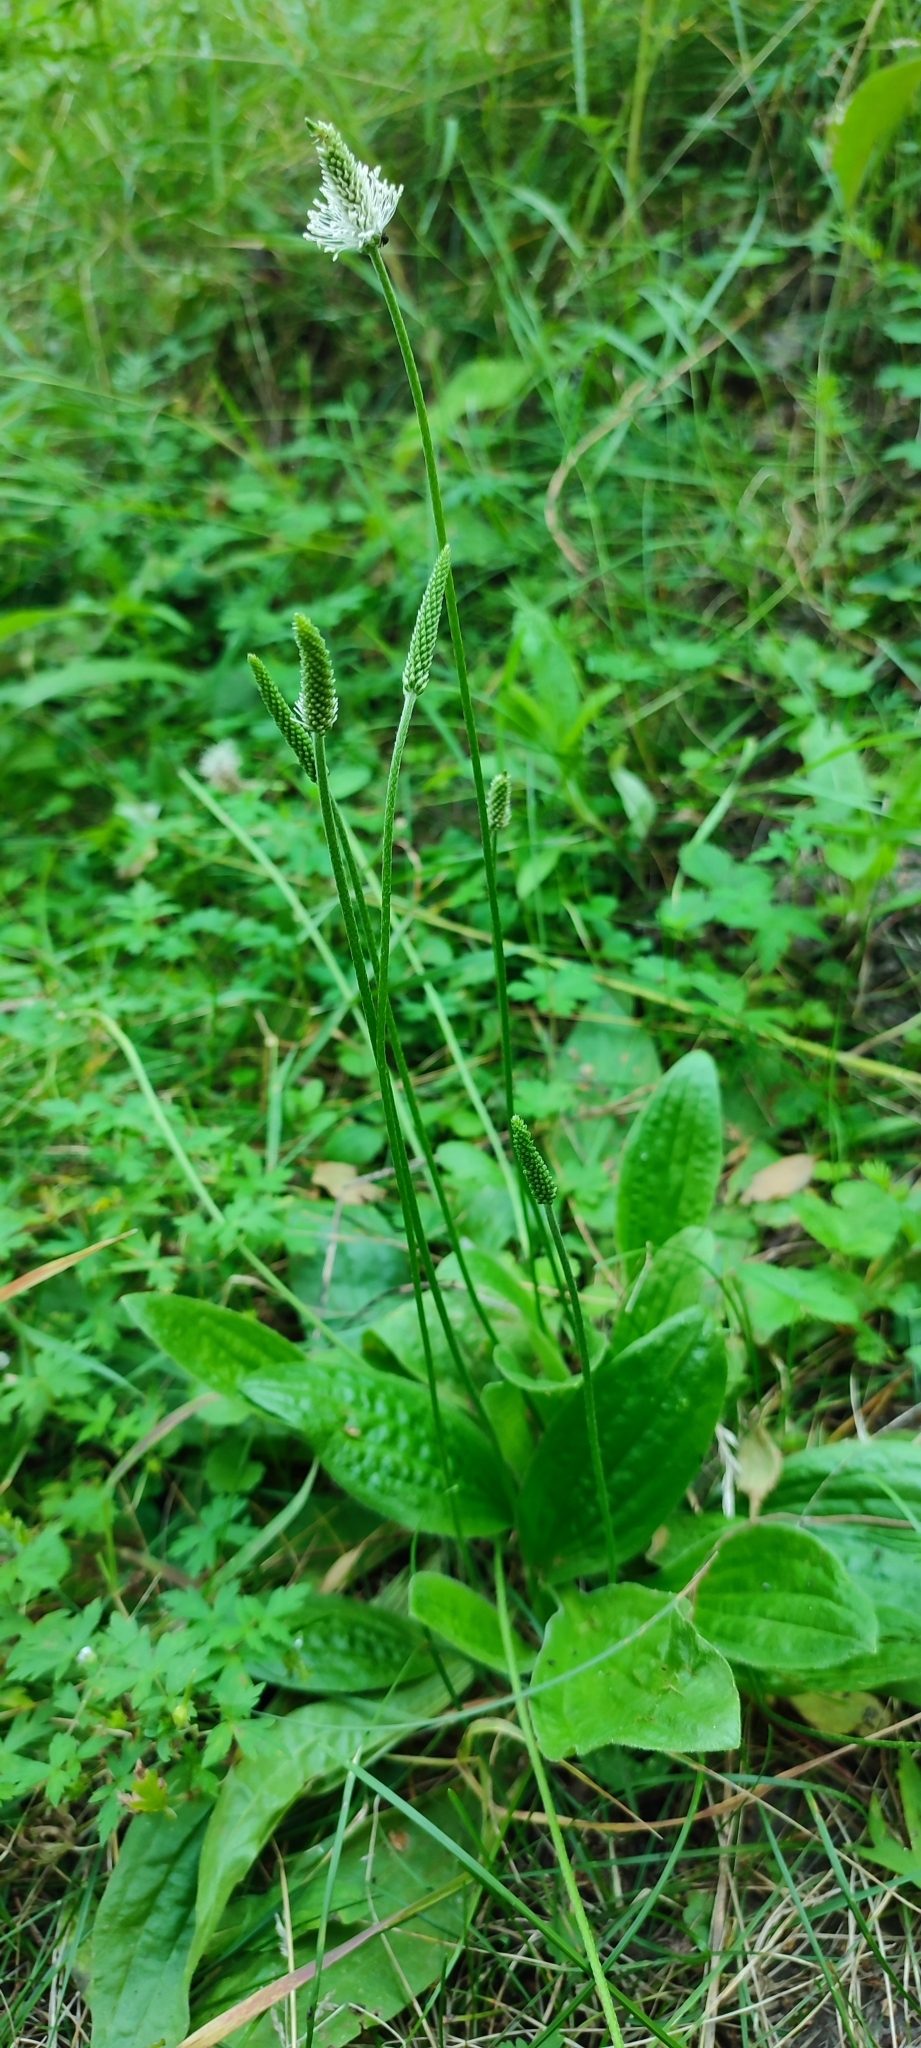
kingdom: Plantae
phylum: Tracheophyta
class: Magnoliopsida
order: Lamiales
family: Plantaginaceae
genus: Plantago
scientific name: Plantago media
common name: Hoary plantain
